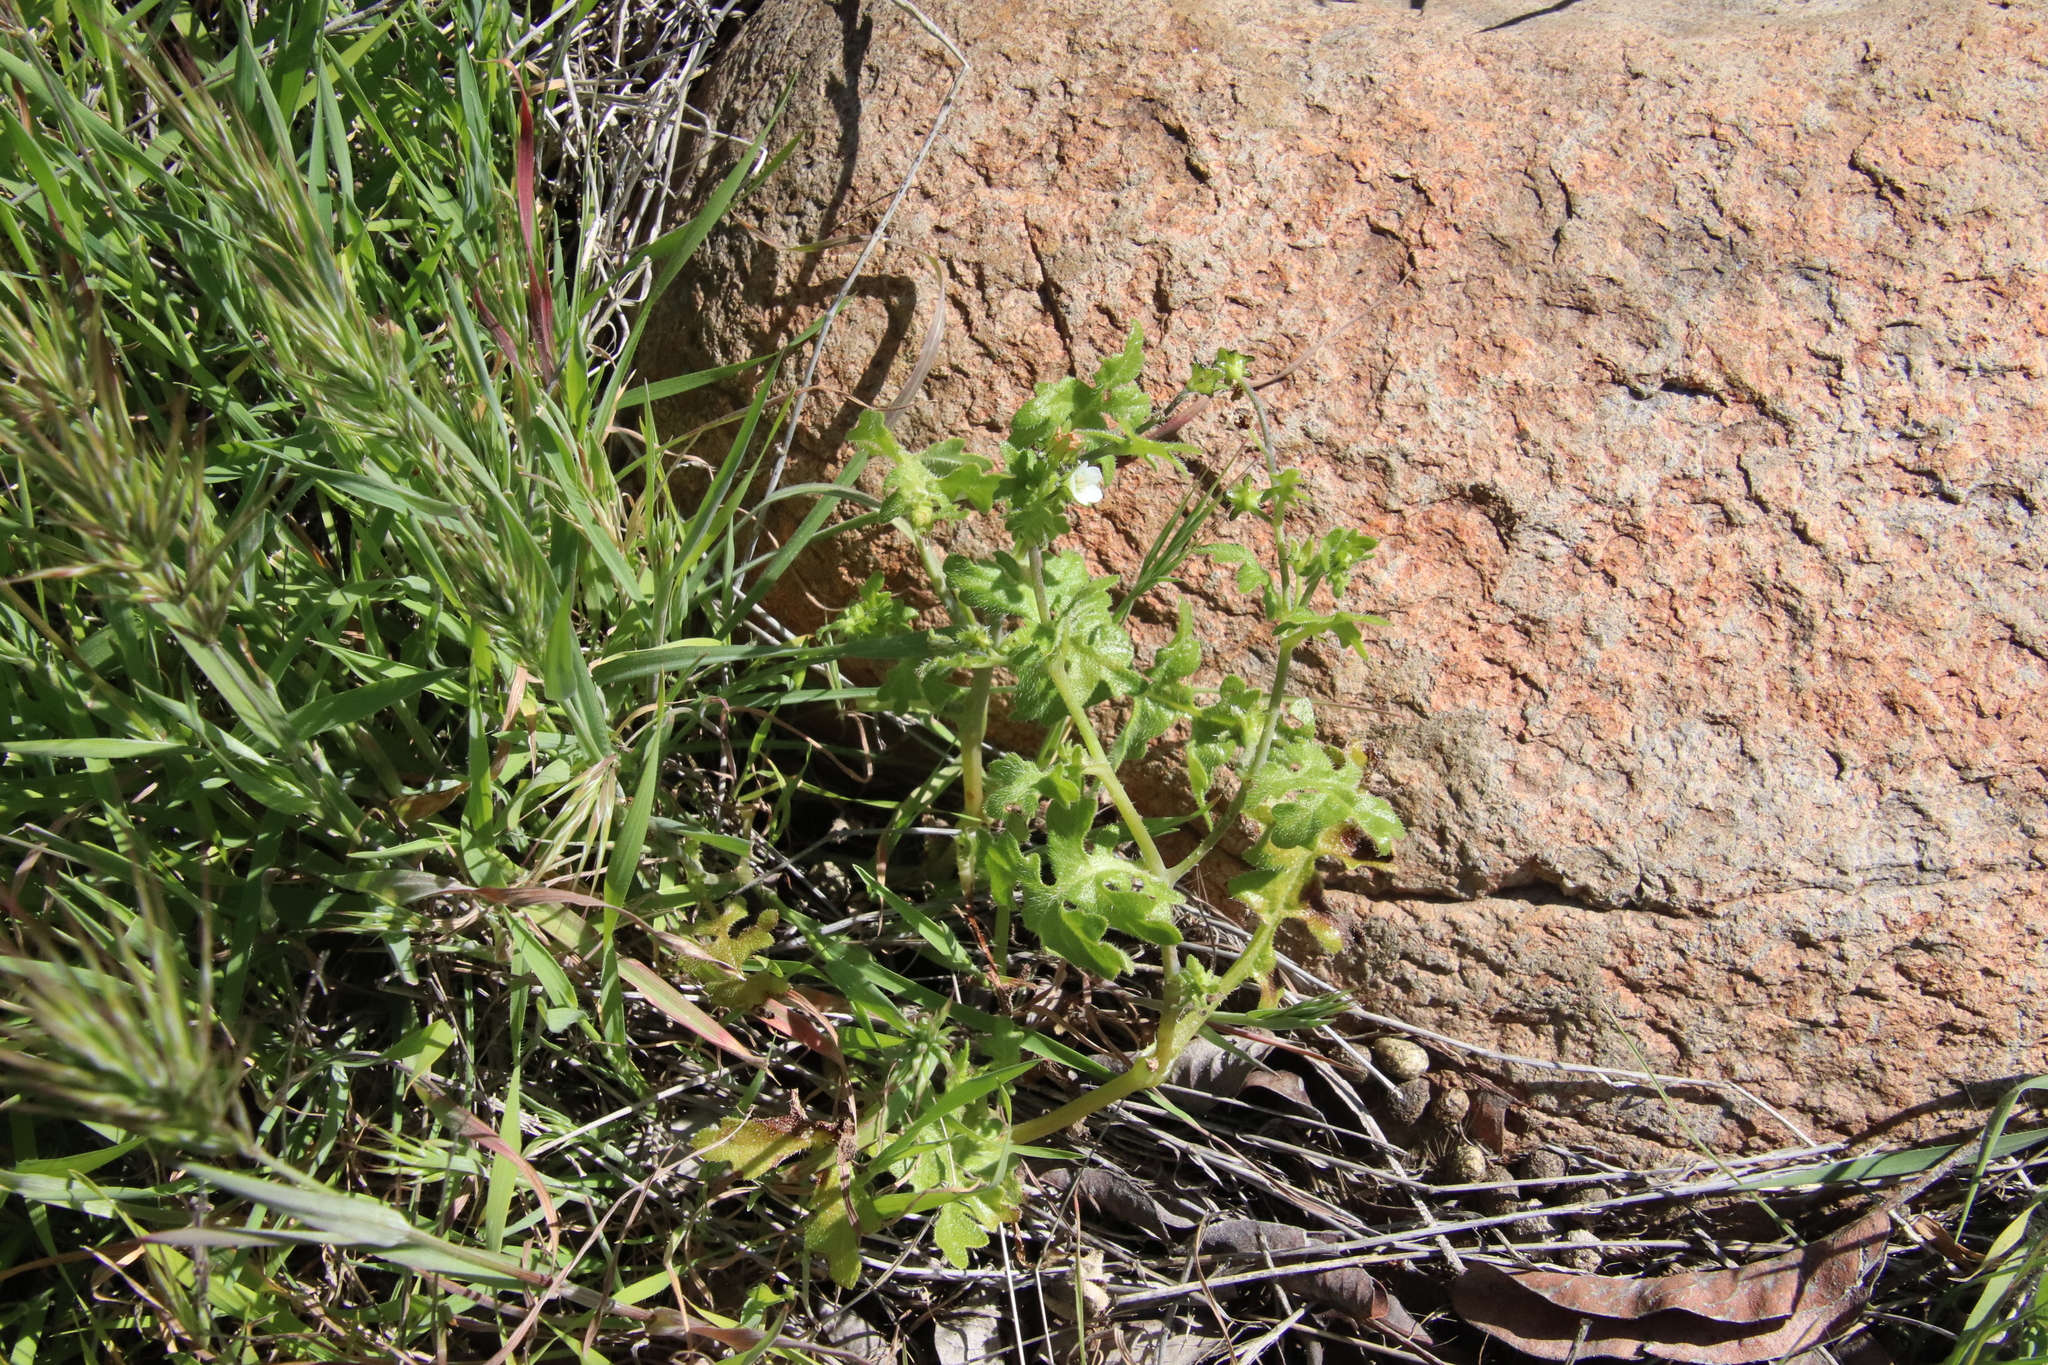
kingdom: Plantae
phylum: Tracheophyta
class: Magnoliopsida
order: Boraginales
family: Hydrophyllaceae
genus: Pholistoma
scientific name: Pholistoma racemosum
